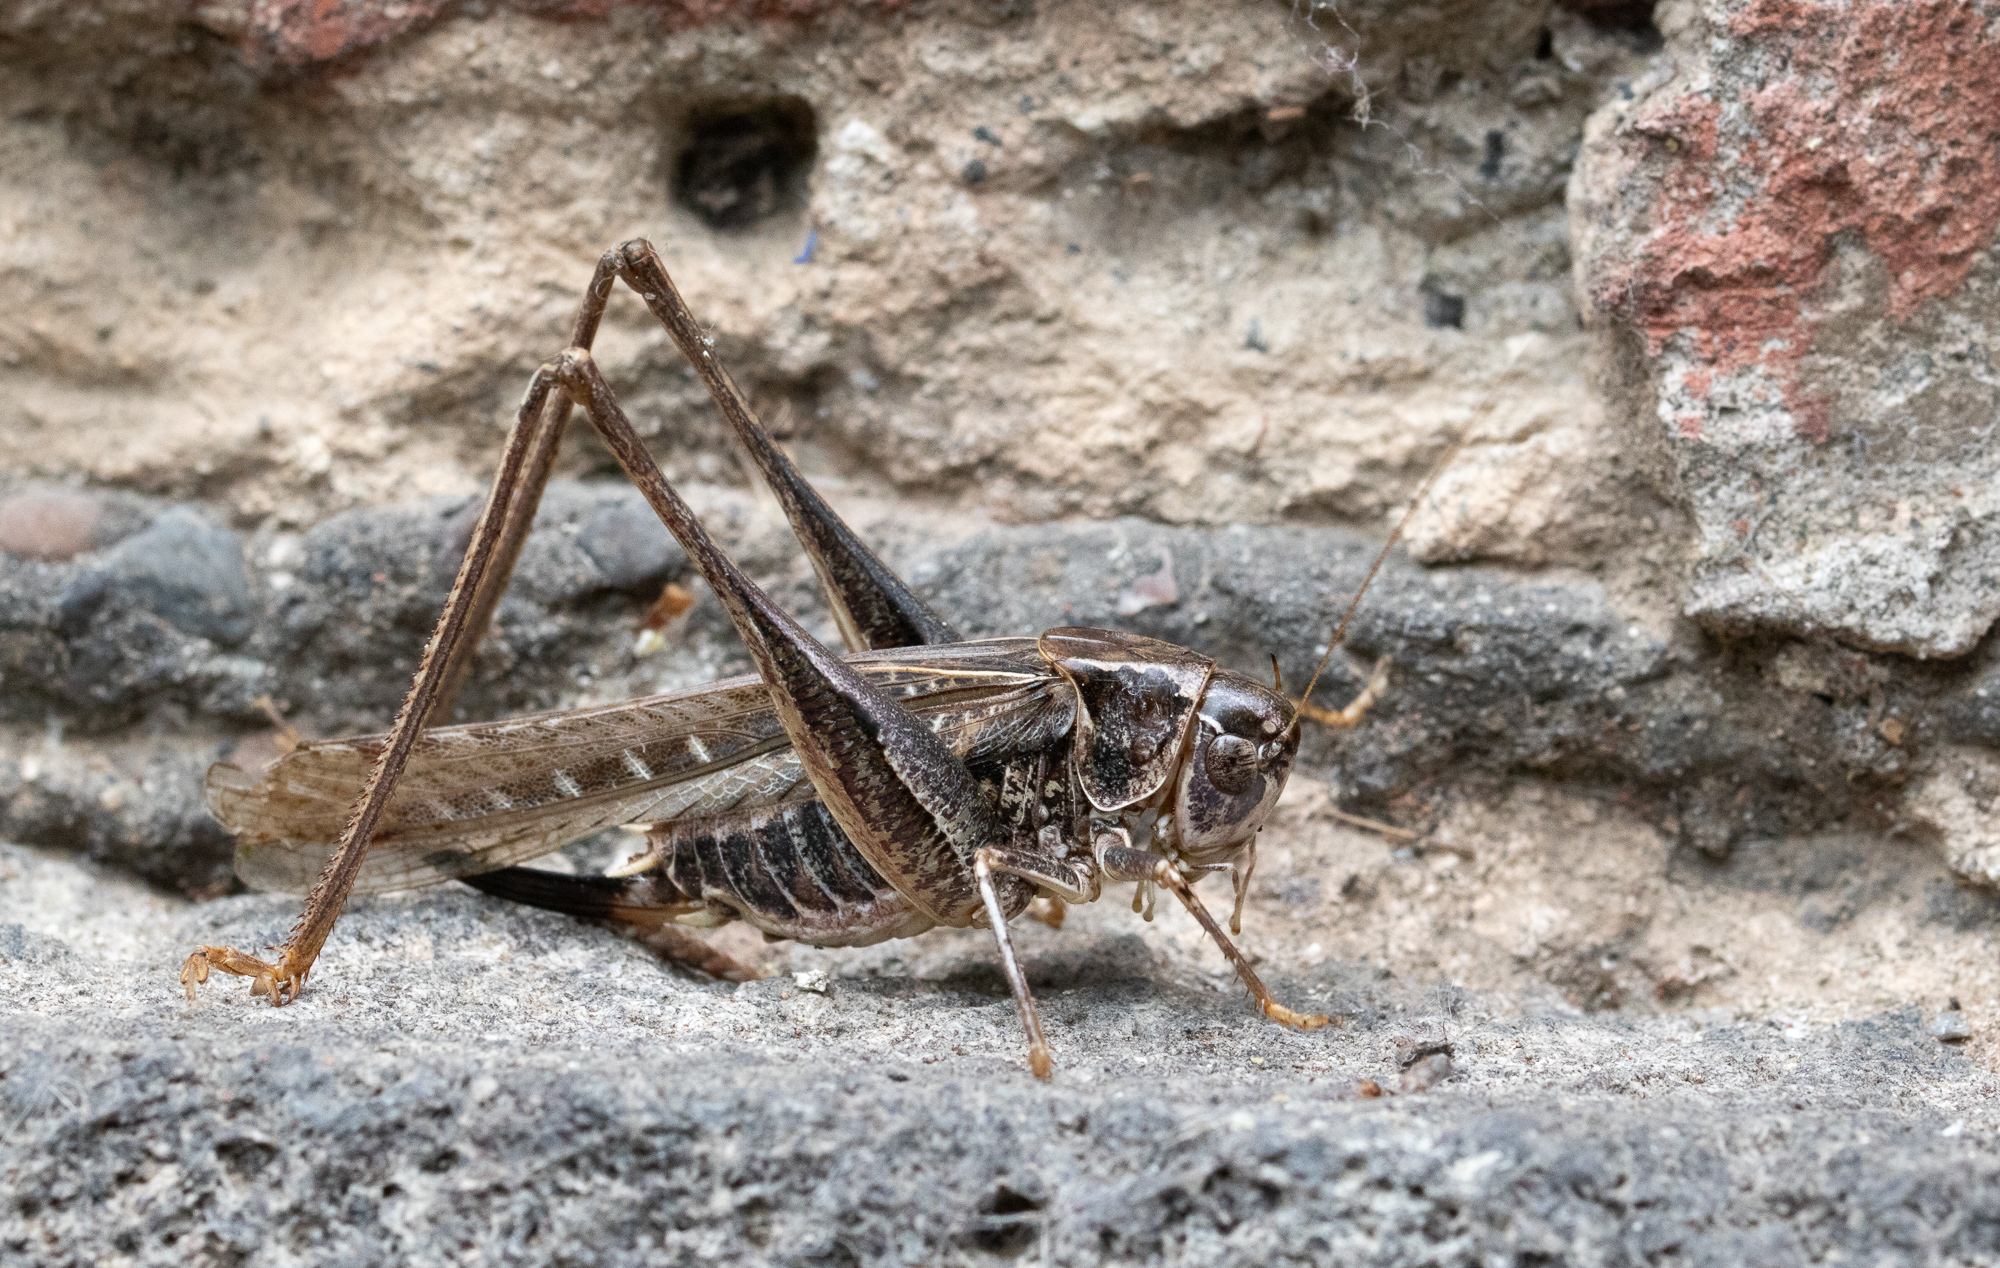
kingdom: Animalia
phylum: Arthropoda
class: Insecta
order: Orthoptera
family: Tettigoniidae
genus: Platycleis
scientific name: Platycleis affinis
